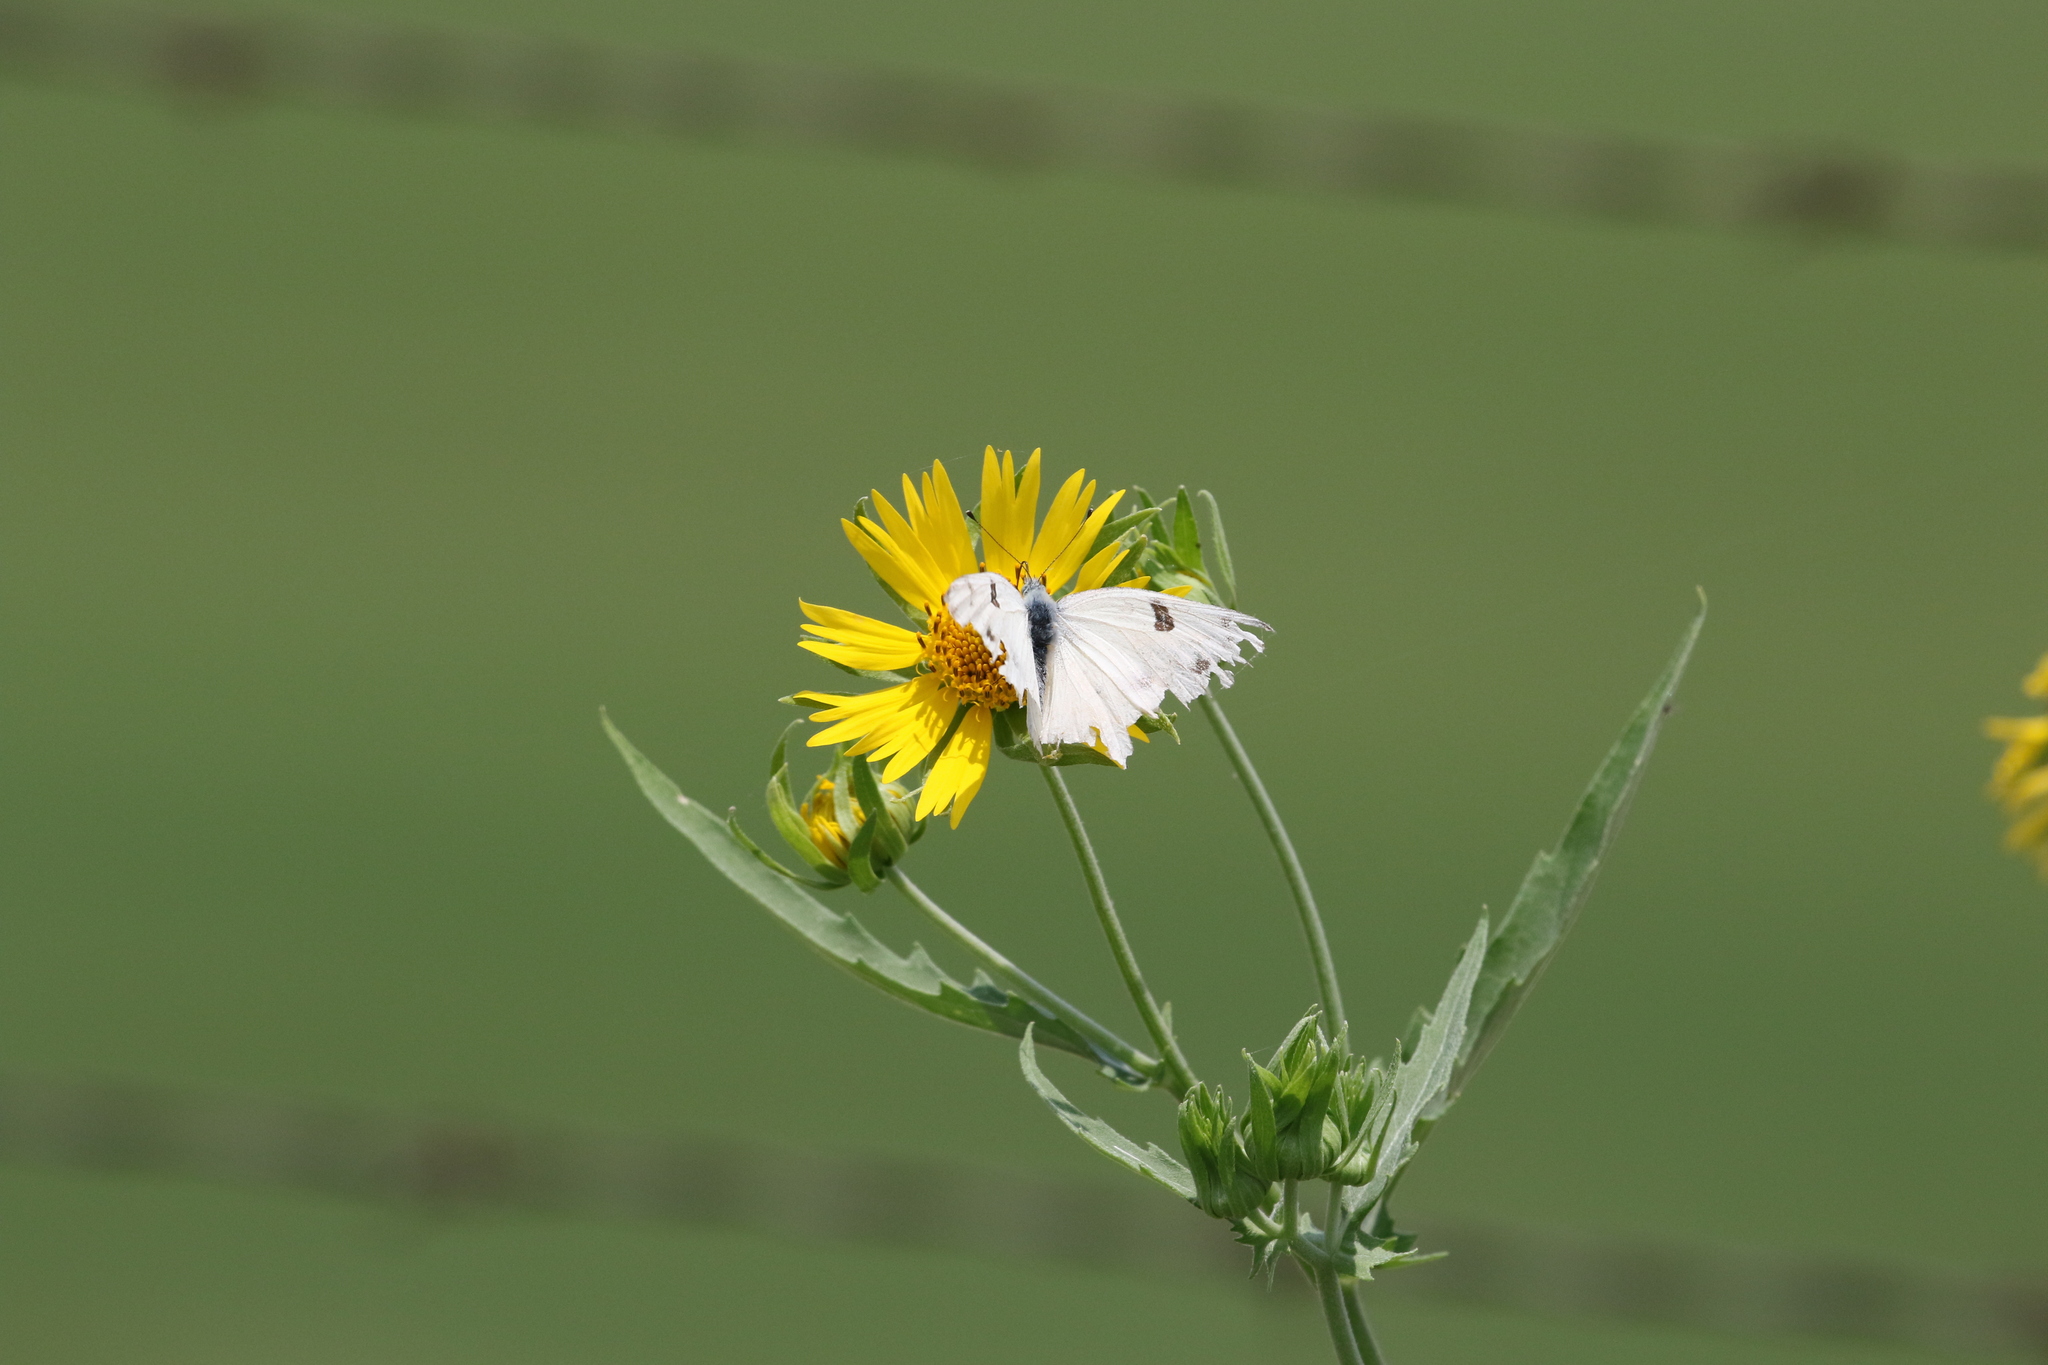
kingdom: Animalia
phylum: Arthropoda
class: Insecta
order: Lepidoptera
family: Pieridae
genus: Pontia
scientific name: Pontia protodice
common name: Checkered white
